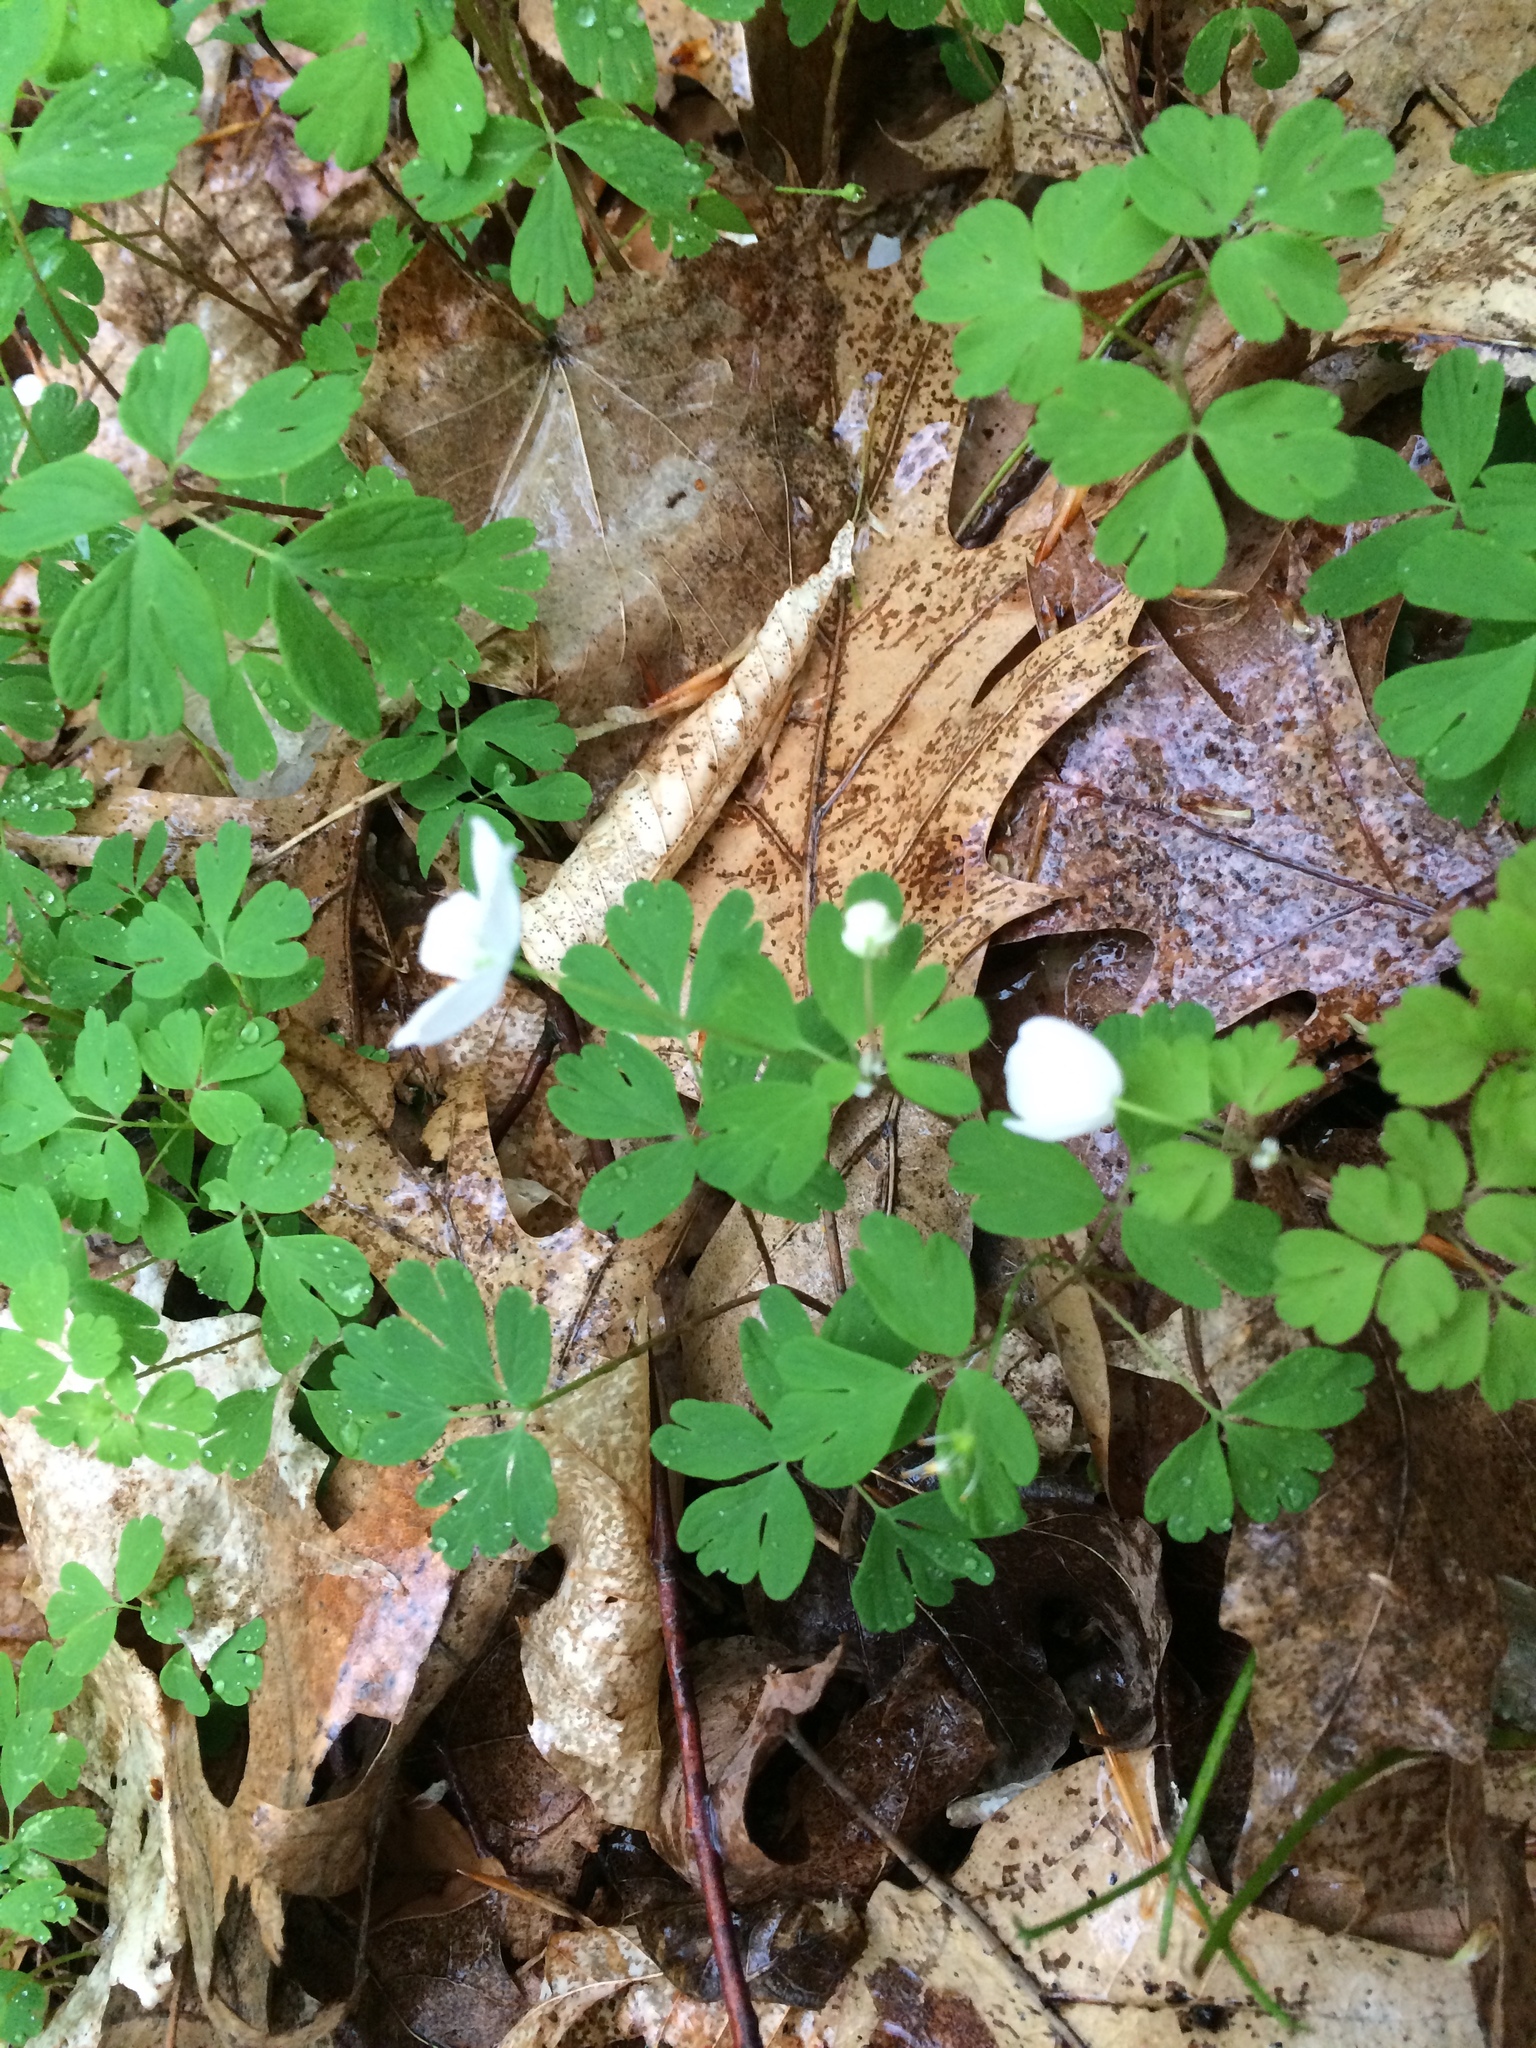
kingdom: Plantae
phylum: Tracheophyta
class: Magnoliopsida
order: Ranunculales
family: Ranunculaceae
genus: Enemion
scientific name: Enemion biternatum
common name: Eastern false rue-anemone
